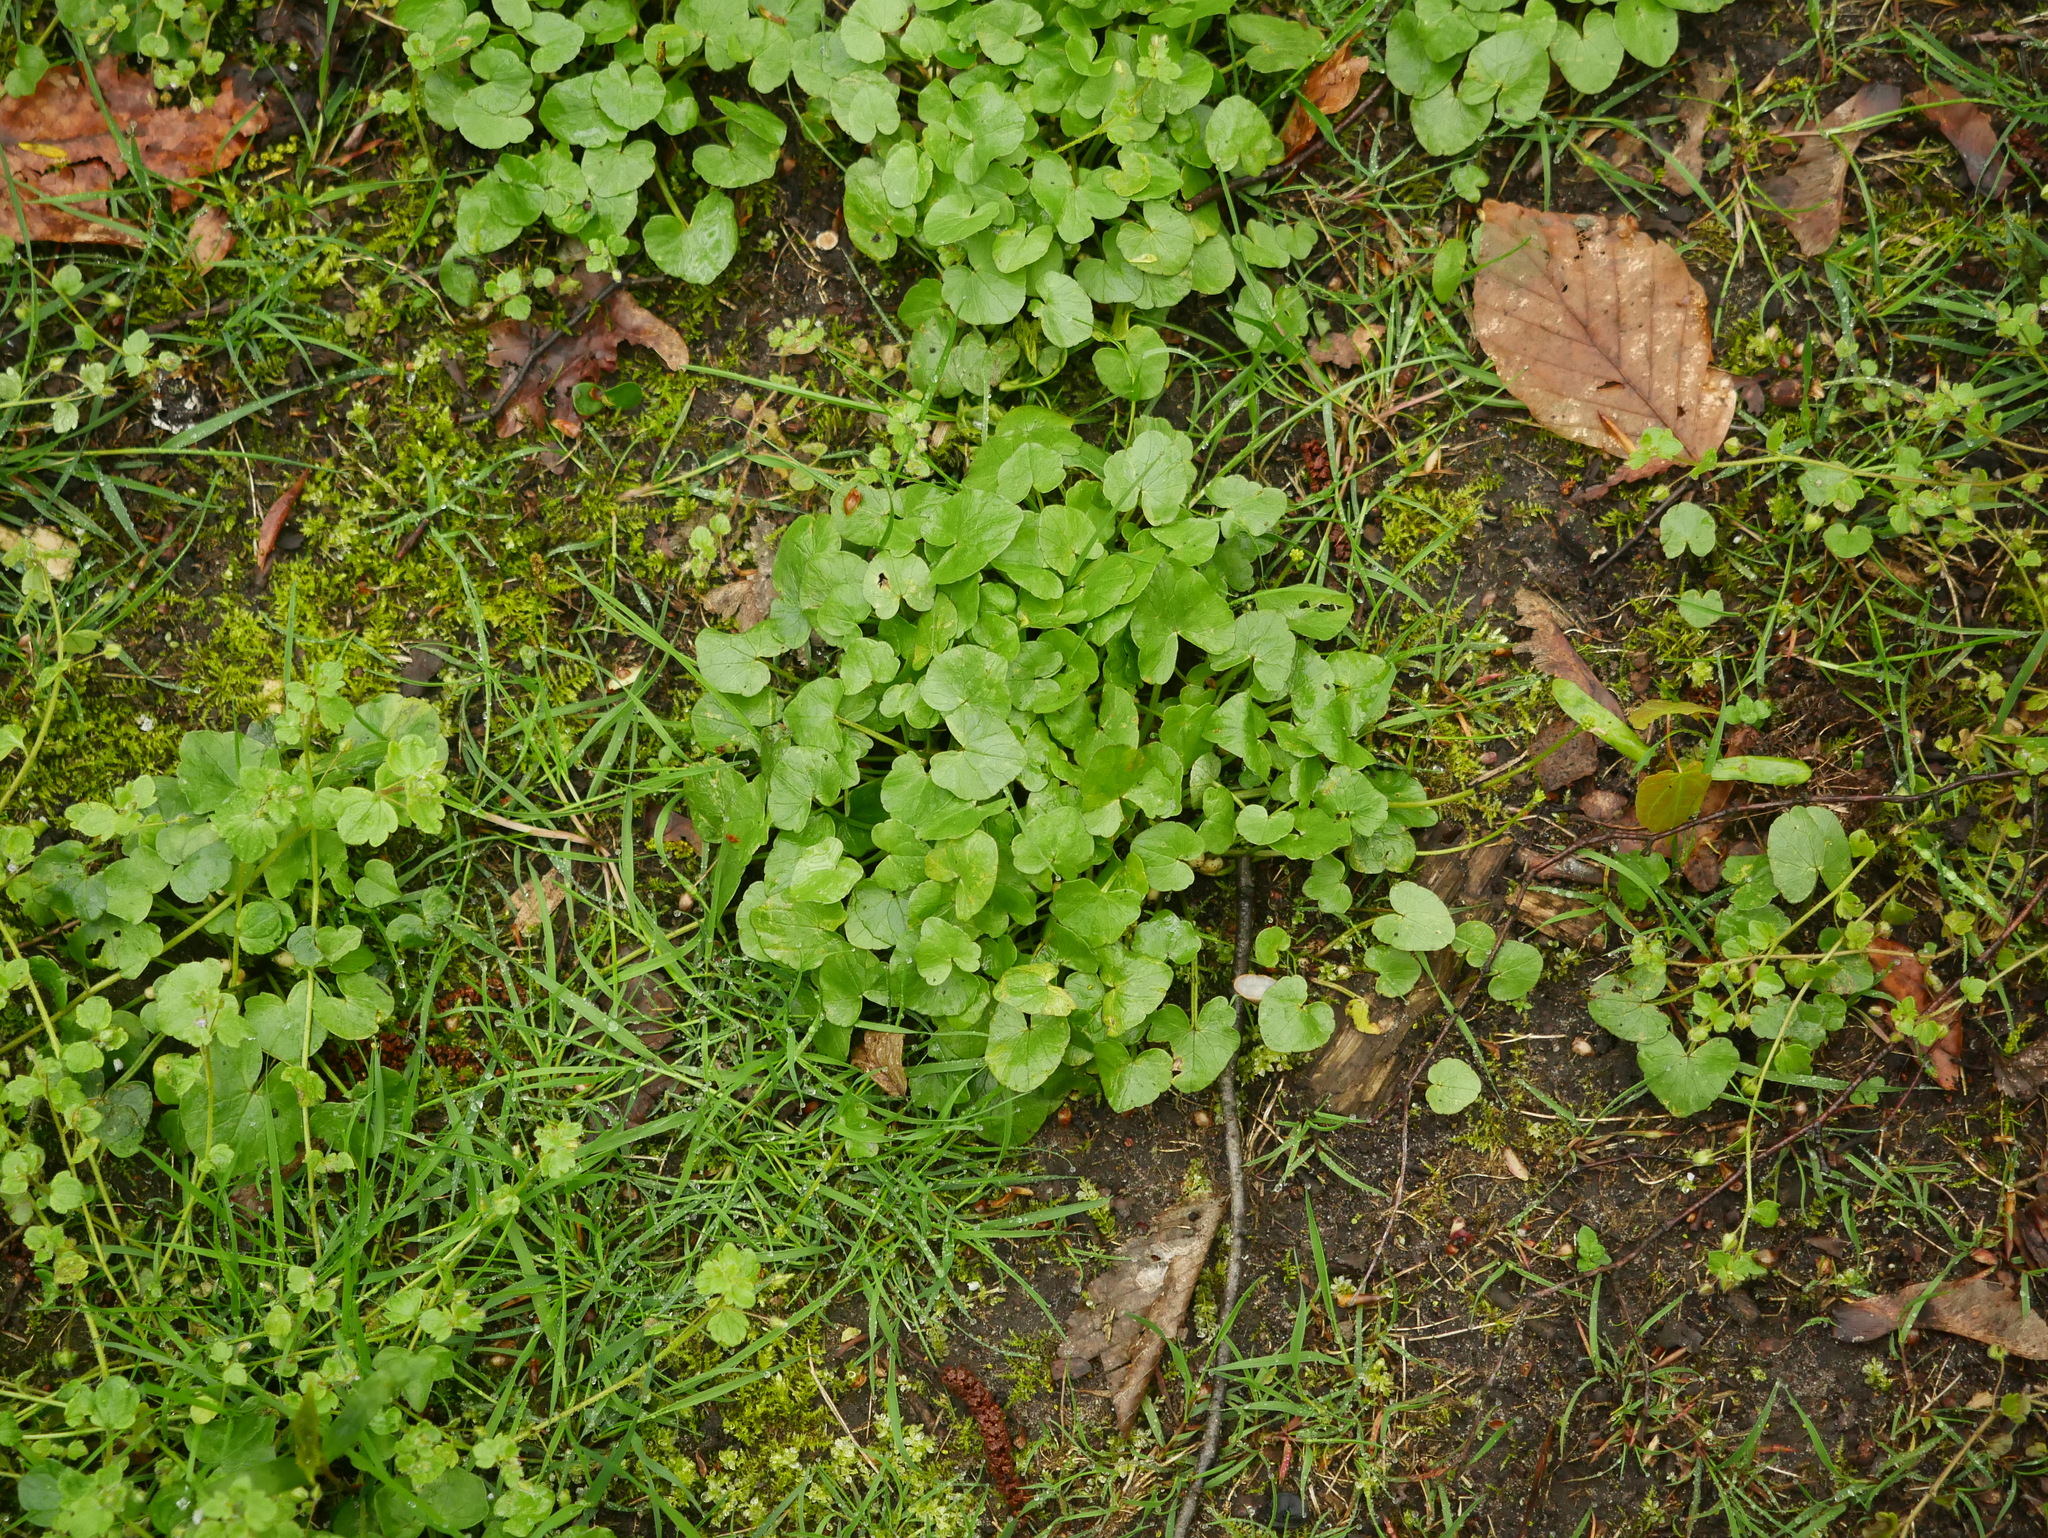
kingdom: Plantae
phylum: Tracheophyta
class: Magnoliopsida
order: Ranunculales
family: Ranunculaceae
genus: Ficaria
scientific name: Ficaria verna
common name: Lesser celandine
